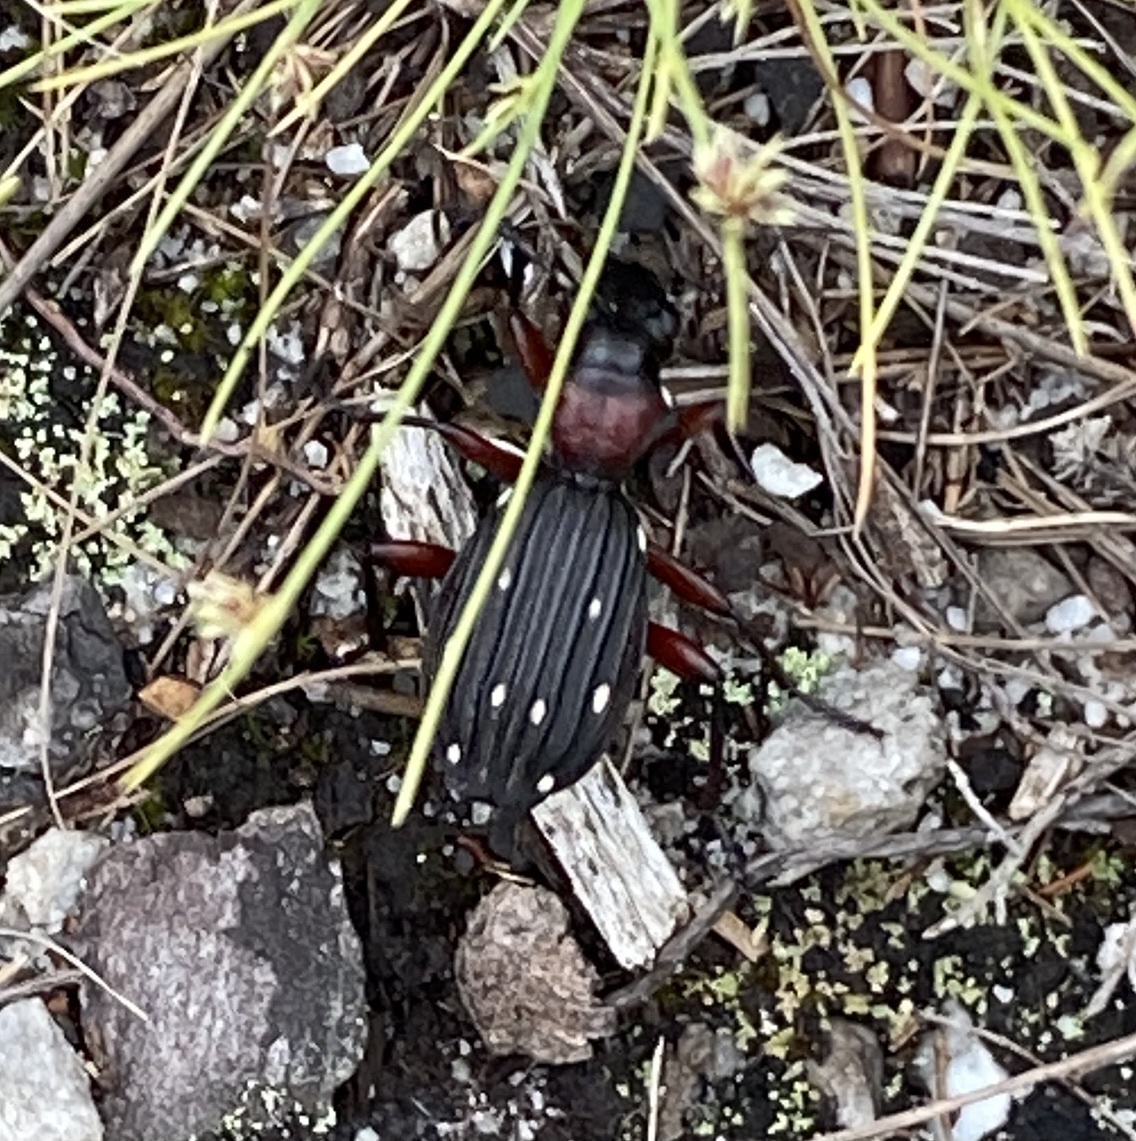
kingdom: Animalia
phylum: Arthropoda
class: Insecta
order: Coleoptera
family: Carabidae
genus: Anthia
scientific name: Anthia decemguttata
